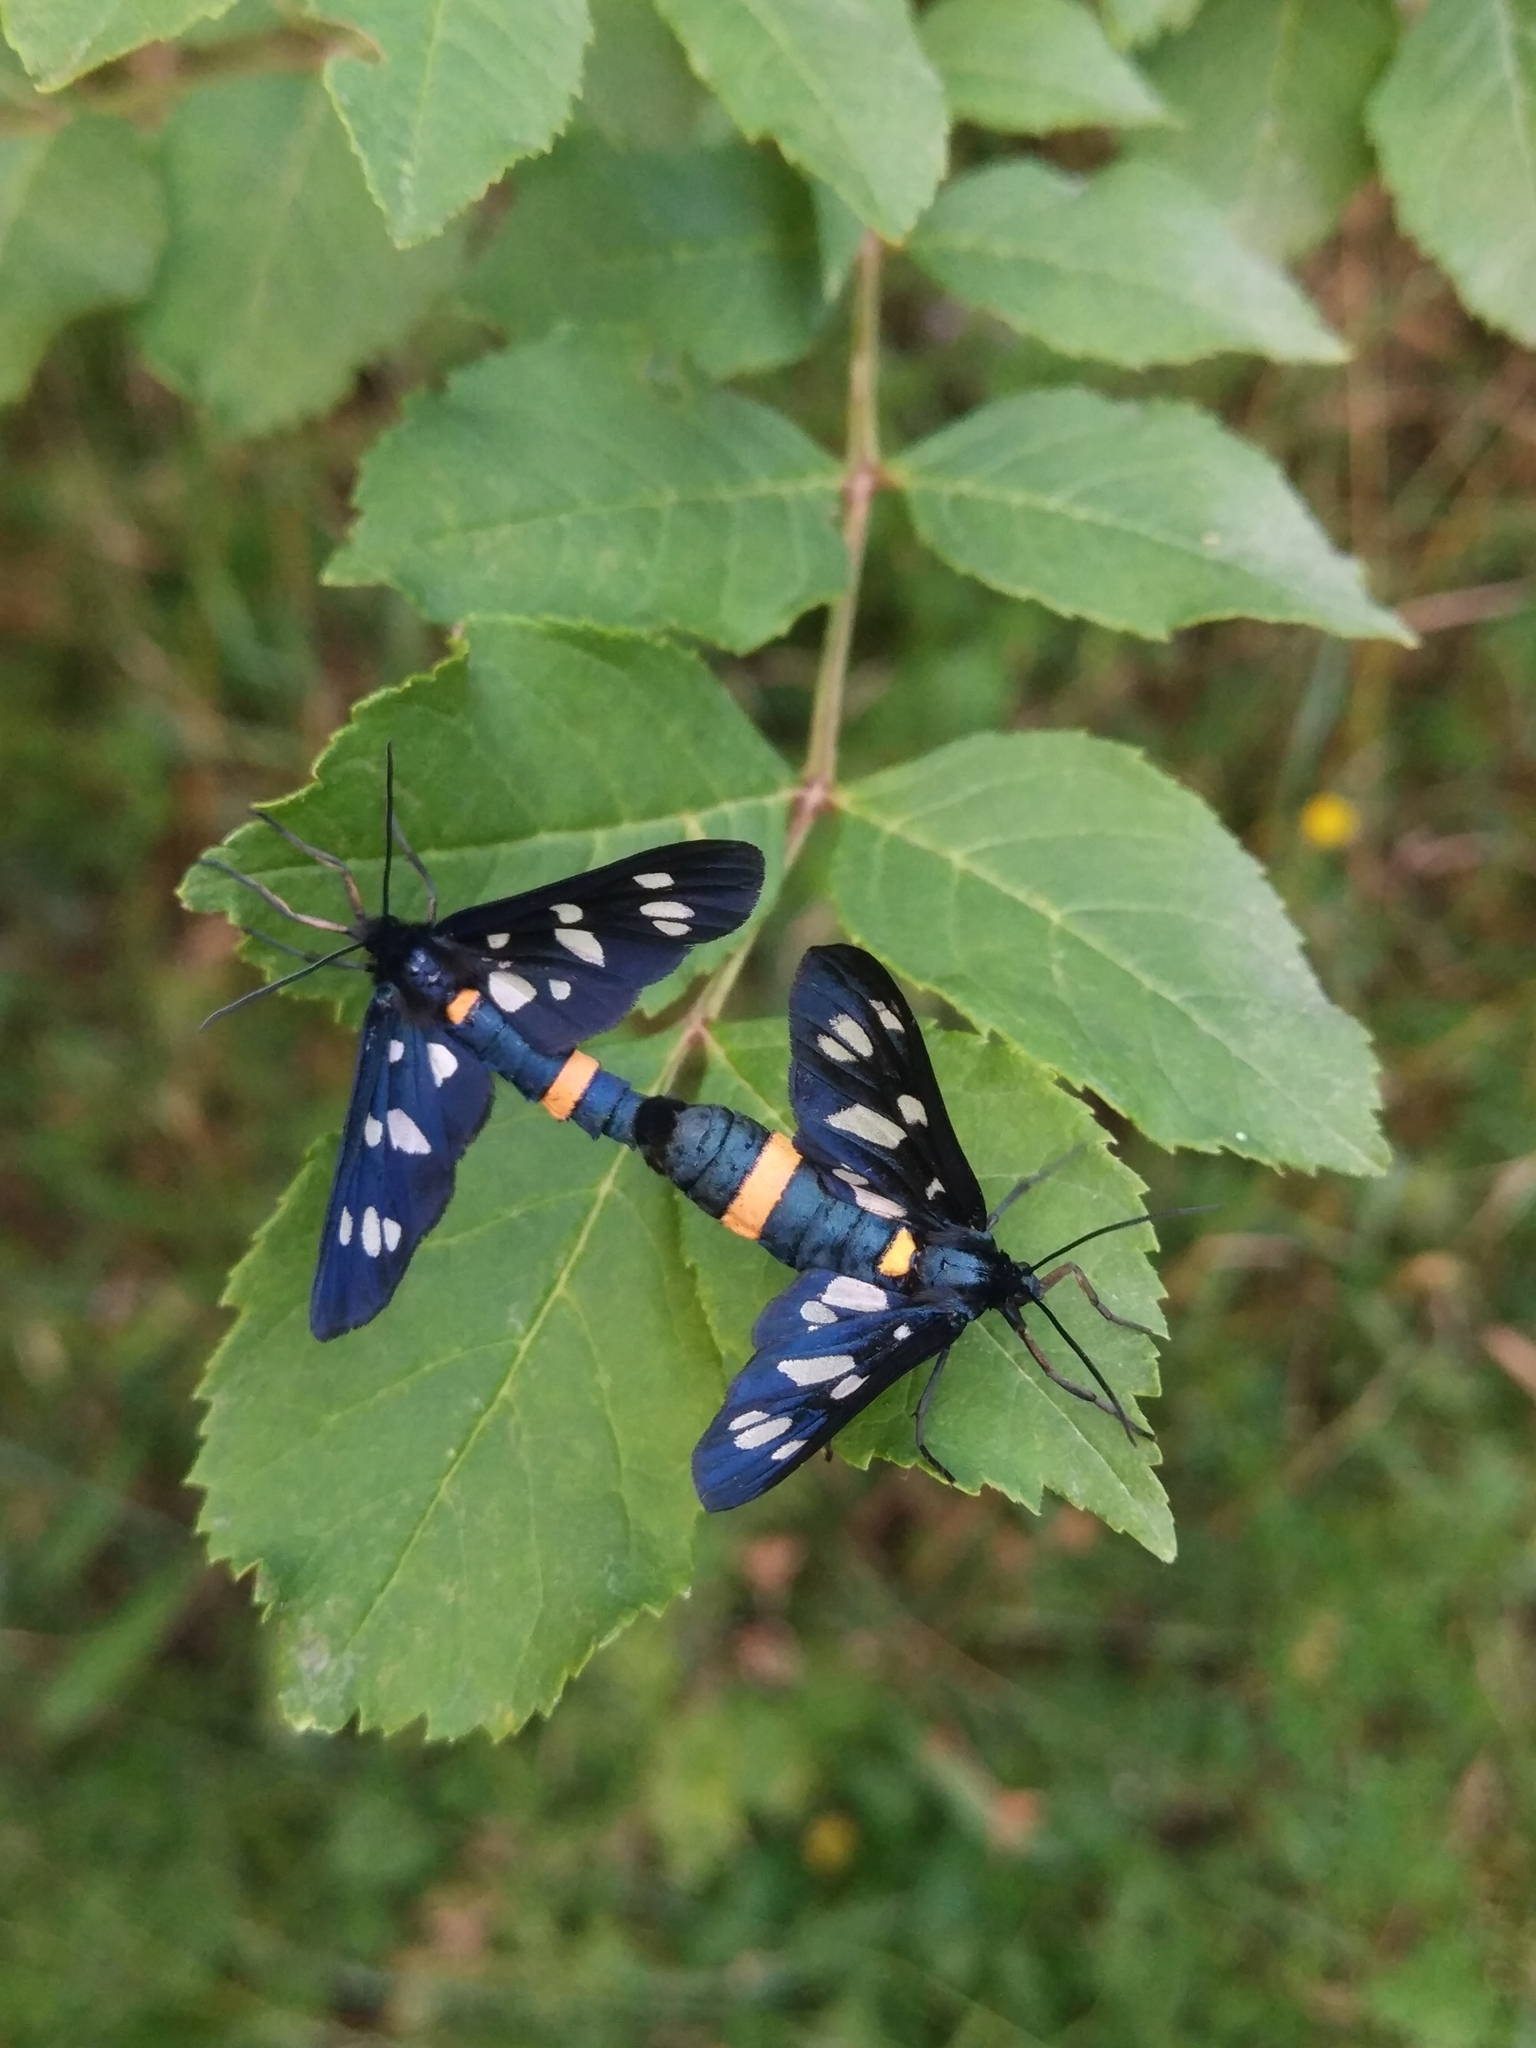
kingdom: Animalia
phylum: Arthropoda
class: Insecta
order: Lepidoptera
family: Erebidae
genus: Amata
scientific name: Amata nigricornis
